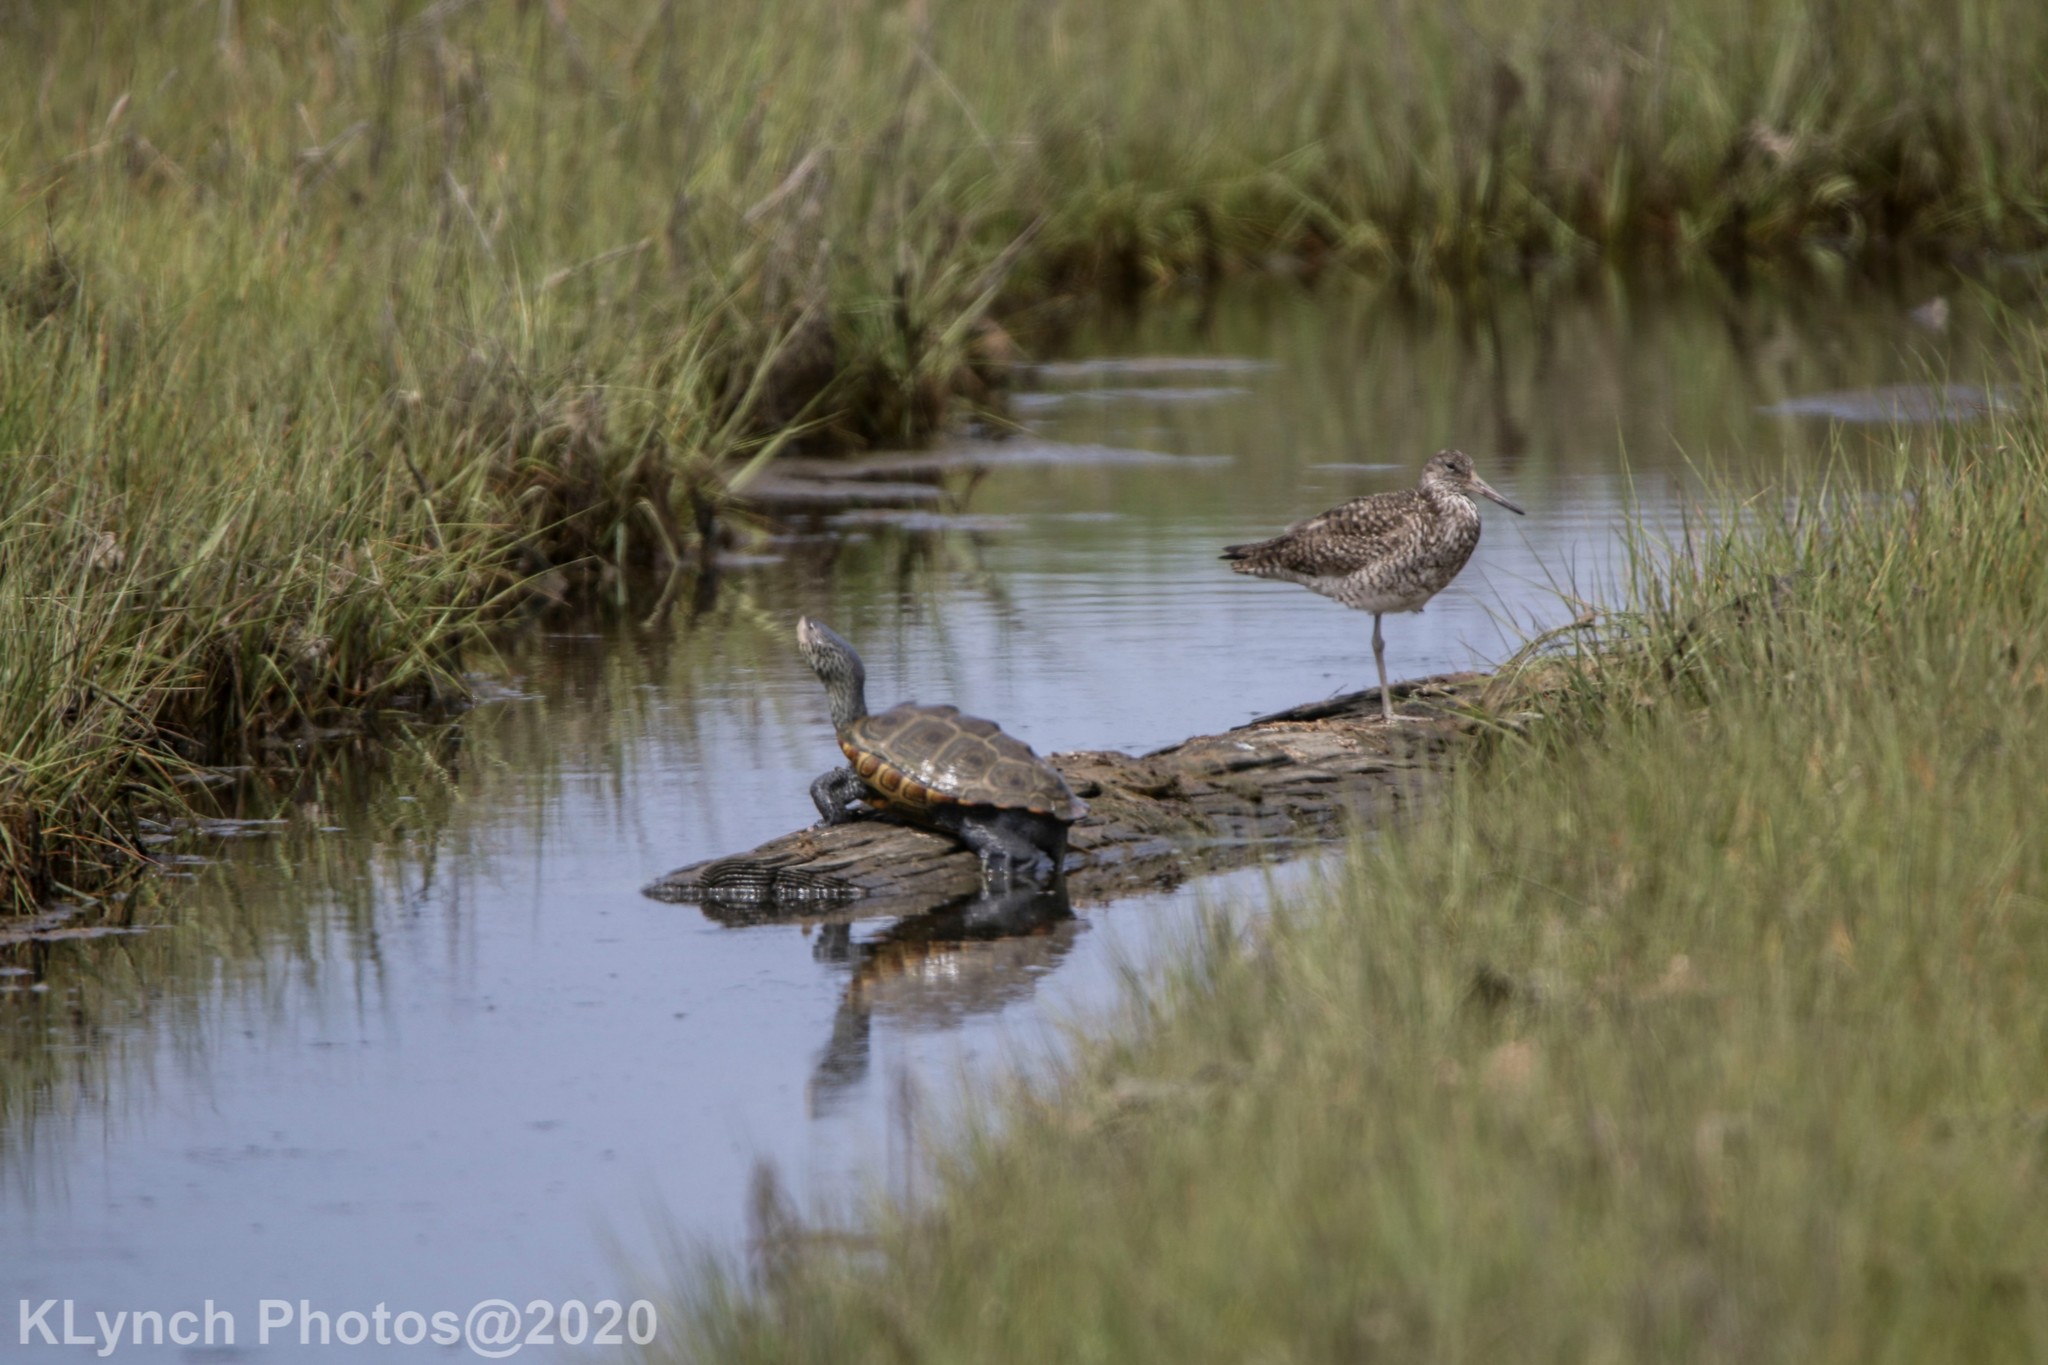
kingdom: Animalia
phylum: Chordata
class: Aves
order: Charadriiformes
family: Scolopacidae
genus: Tringa
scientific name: Tringa semipalmata
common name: Willet
